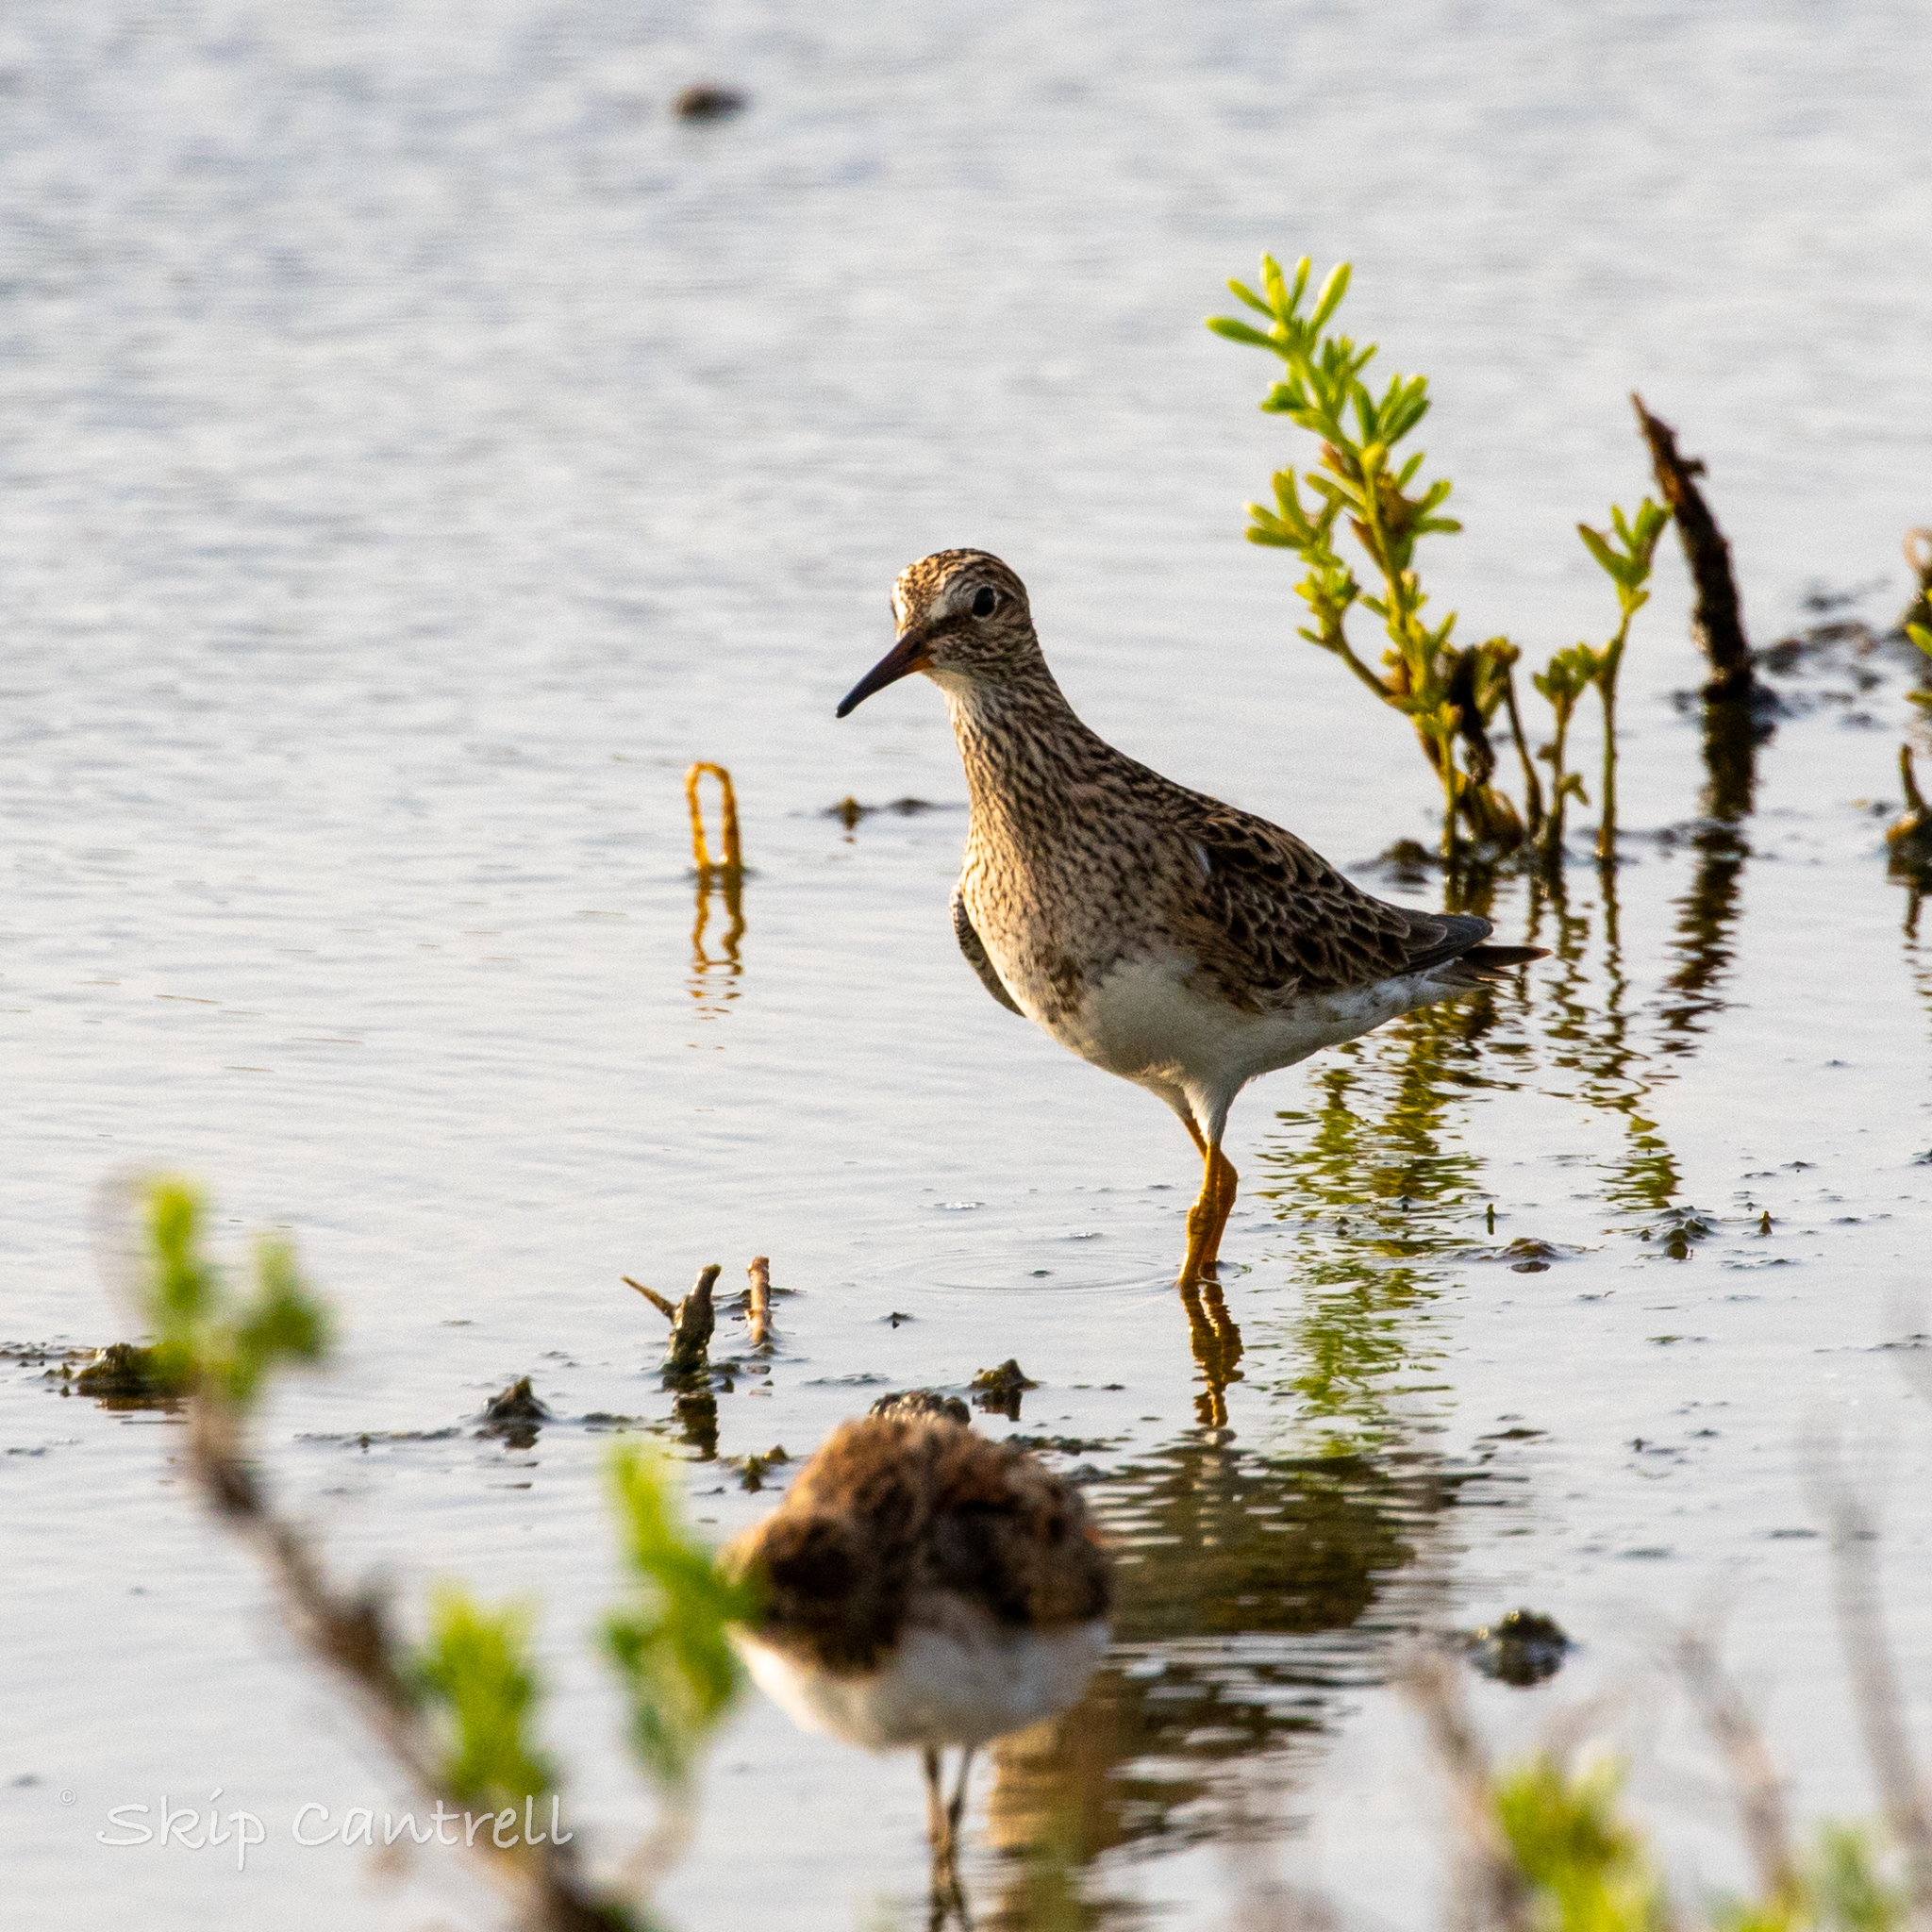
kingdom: Animalia
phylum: Chordata
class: Aves
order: Charadriiformes
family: Scolopacidae
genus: Calidris
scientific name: Calidris melanotos
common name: Pectoral sandpiper
